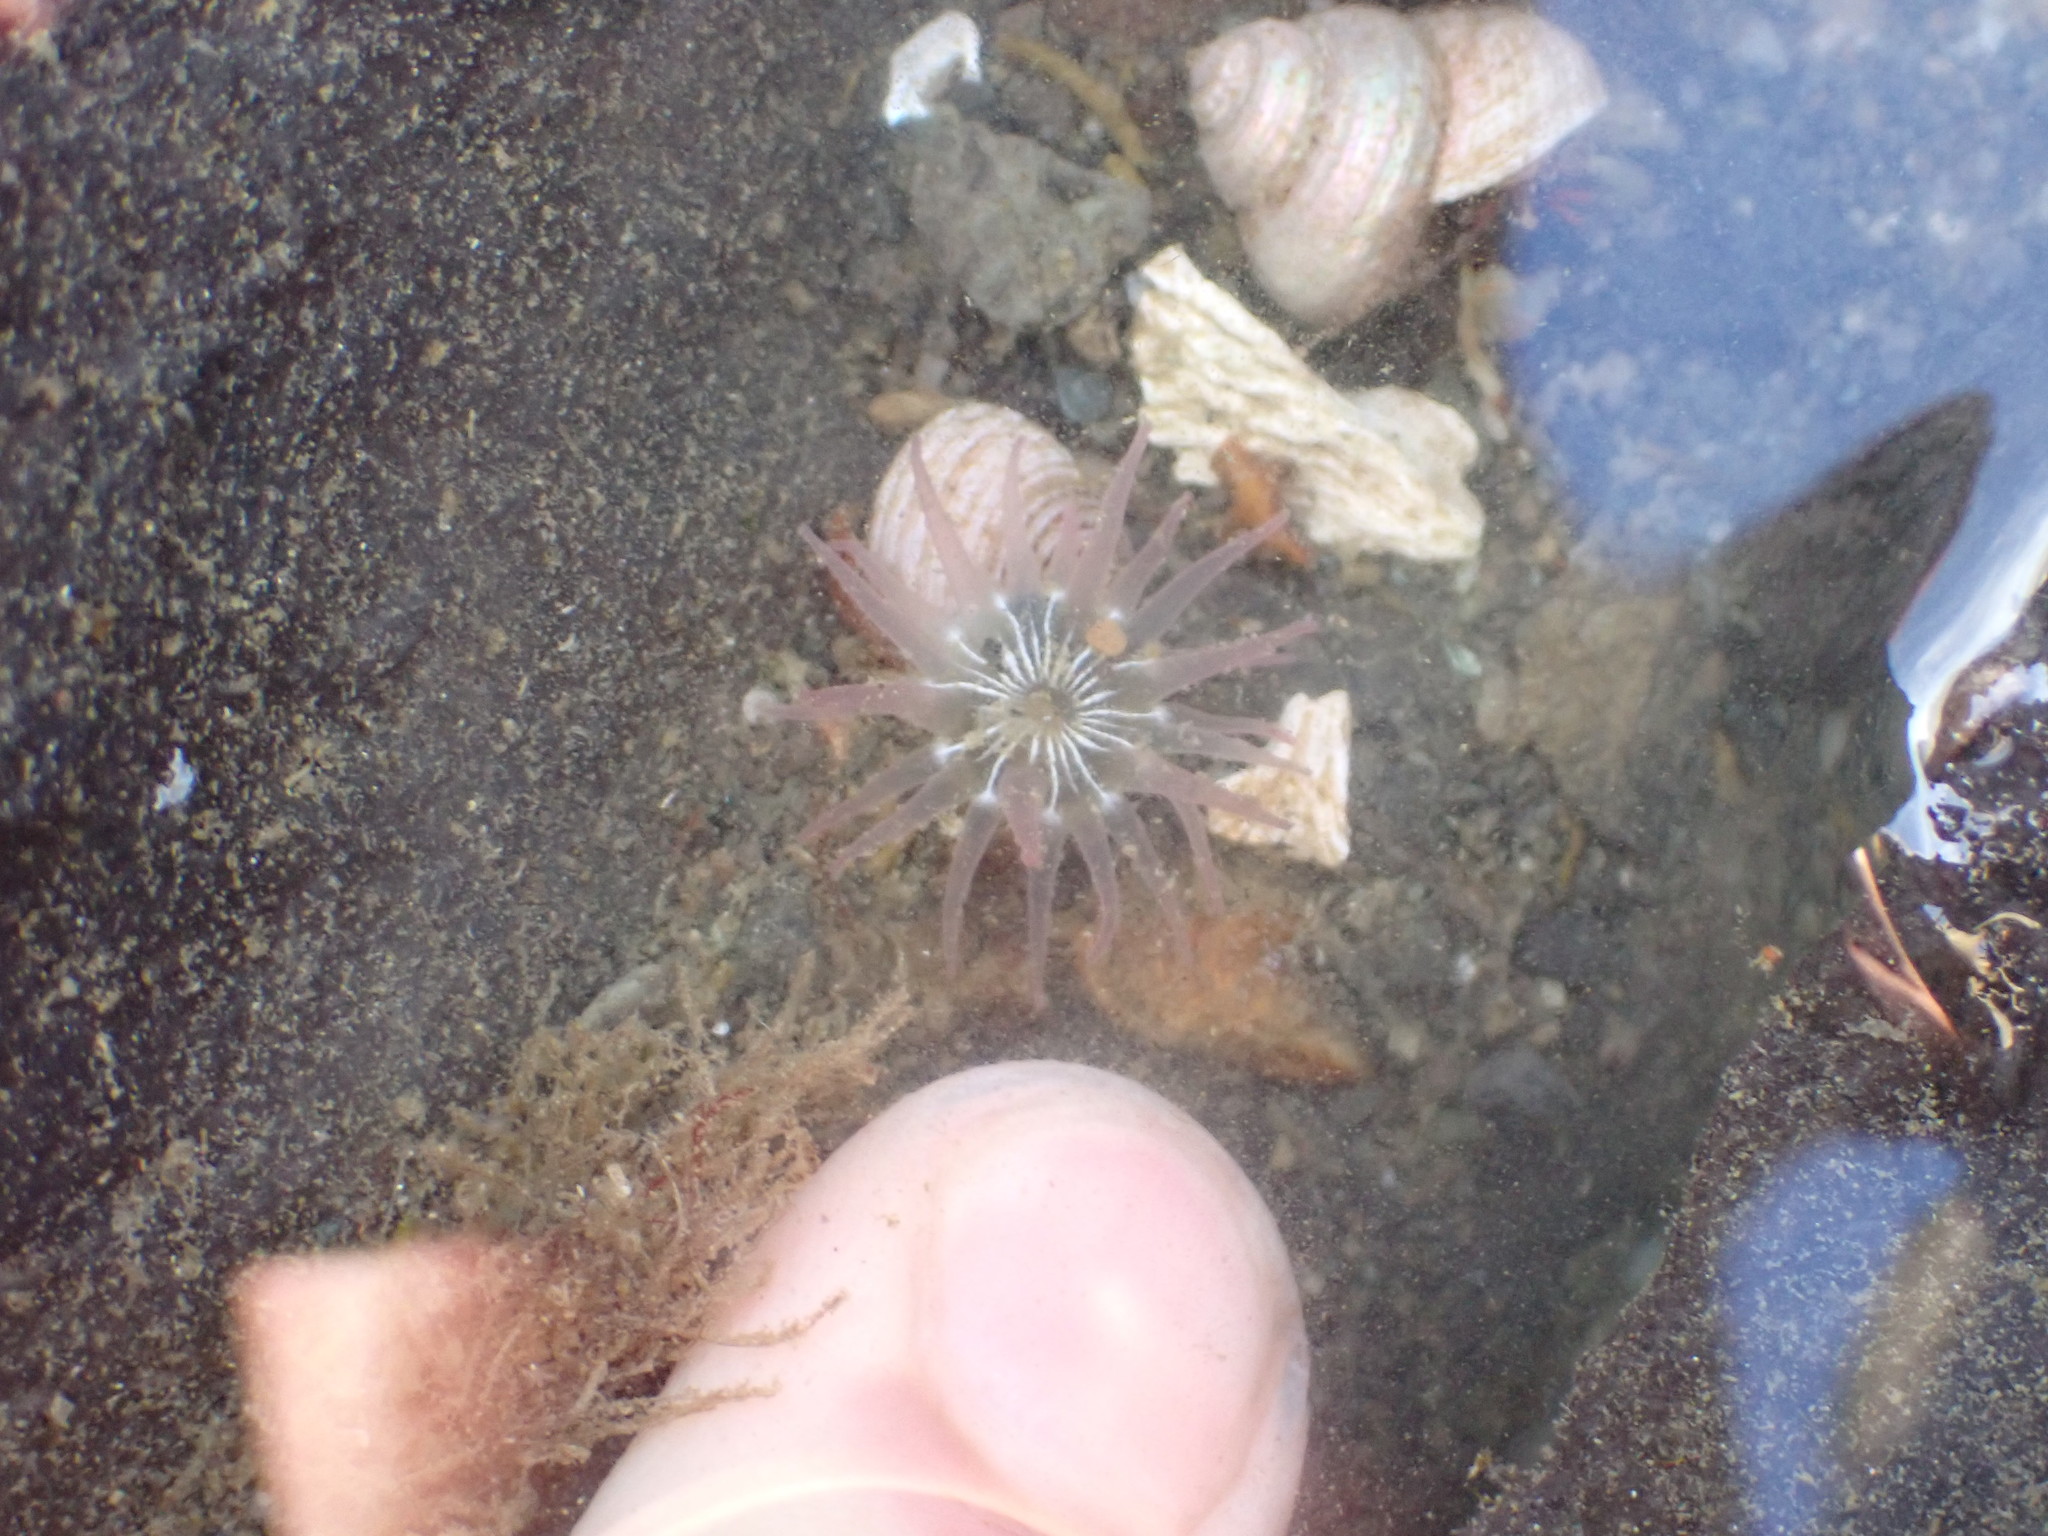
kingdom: Animalia
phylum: Cnidaria
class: Anthozoa
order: Actiniaria
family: Actiniidae
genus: Aulactinia
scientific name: Aulactinia incubans
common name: Incubating anemone
